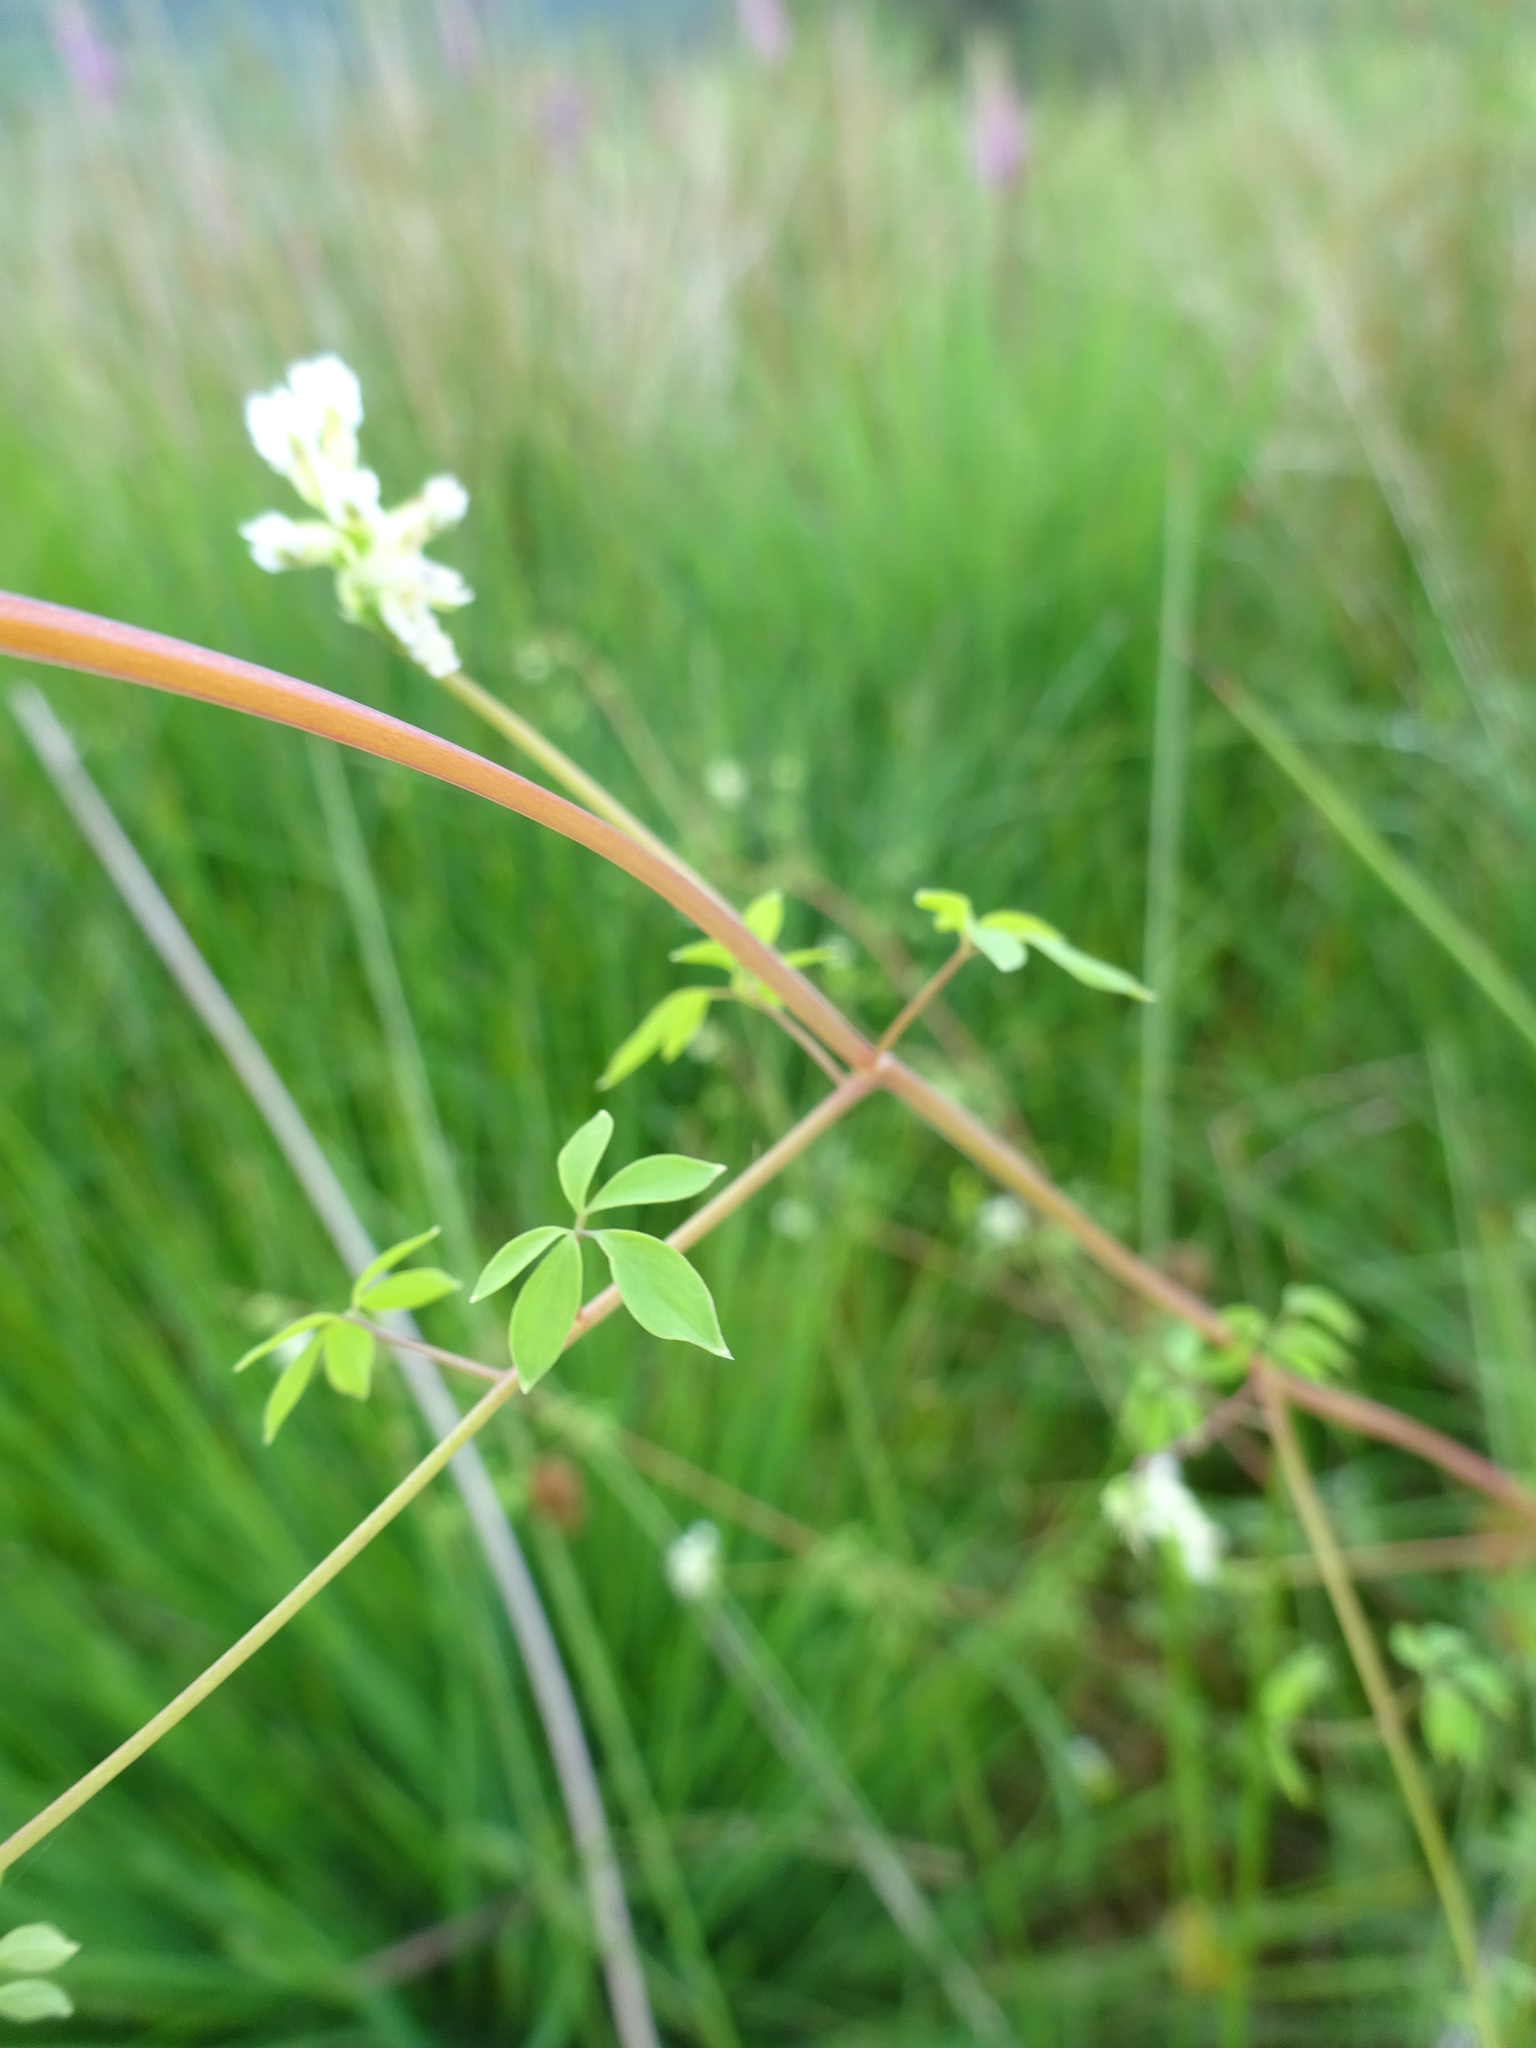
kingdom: Plantae
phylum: Tracheophyta
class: Magnoliopsida
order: Ranunculales
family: Papaveraceae
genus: Ceratocapnos
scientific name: Ceratocapnos claviculata
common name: Climbing corydalis
